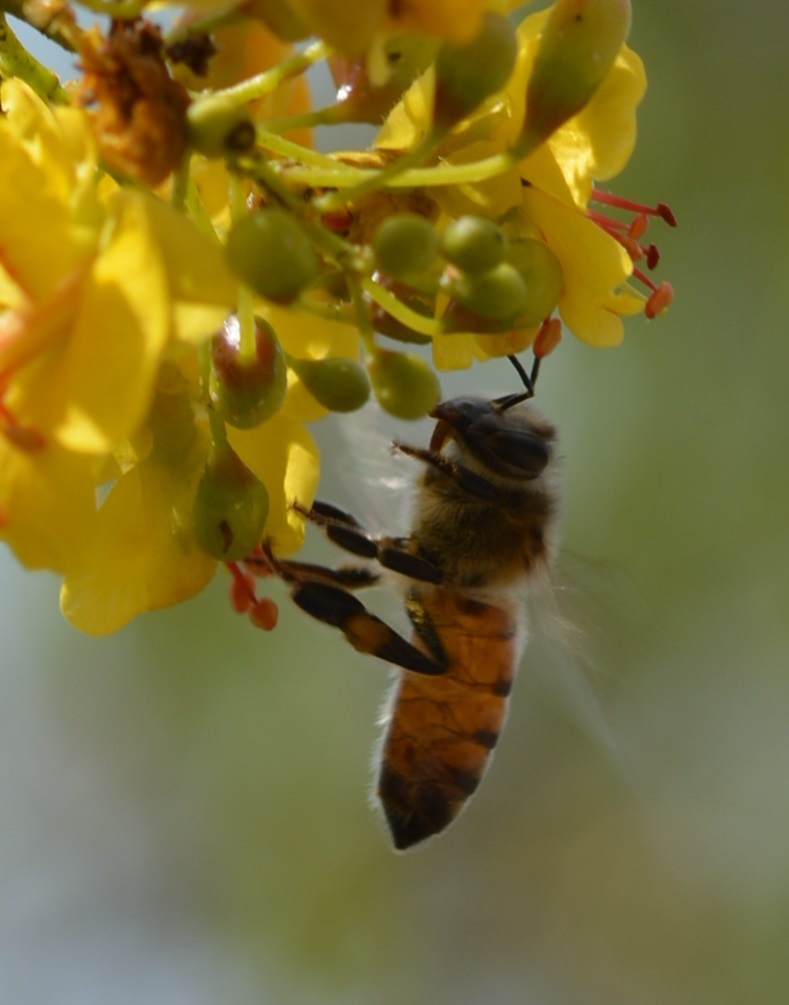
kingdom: Animalia
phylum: Arthropoda
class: Insecta
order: Hymenoptera
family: Apidae
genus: Apis
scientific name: Apis mellifera
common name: Honey bee
